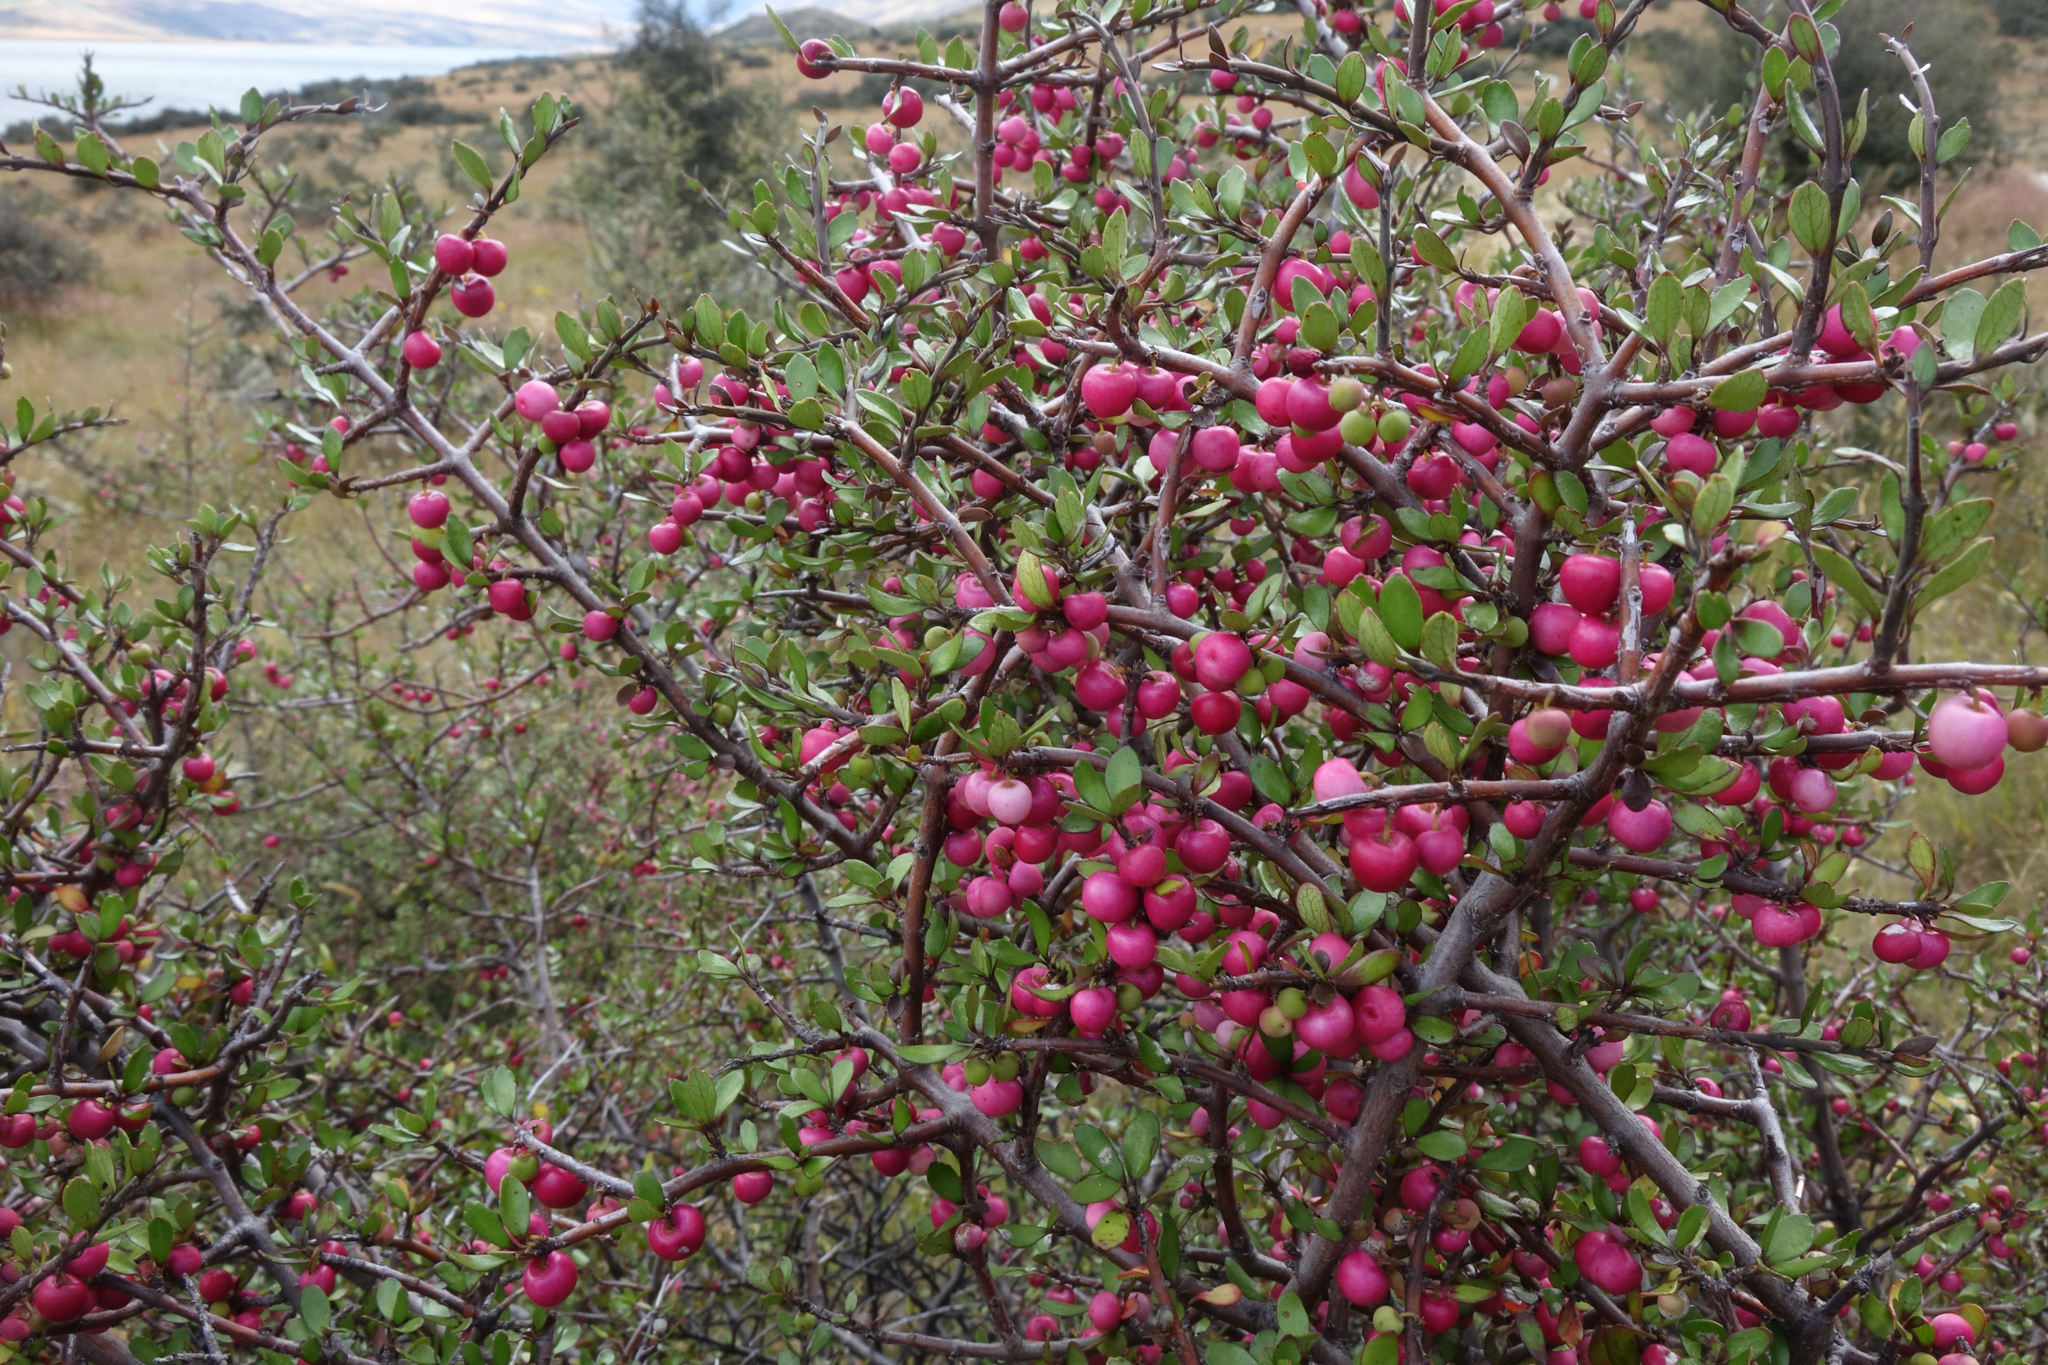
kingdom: Plantae
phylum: Tracheophyta
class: Magnoliopsida
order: Oxalidales
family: Elaeocarpaceae
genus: Aristotelia
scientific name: Aristotelia fruticosa
